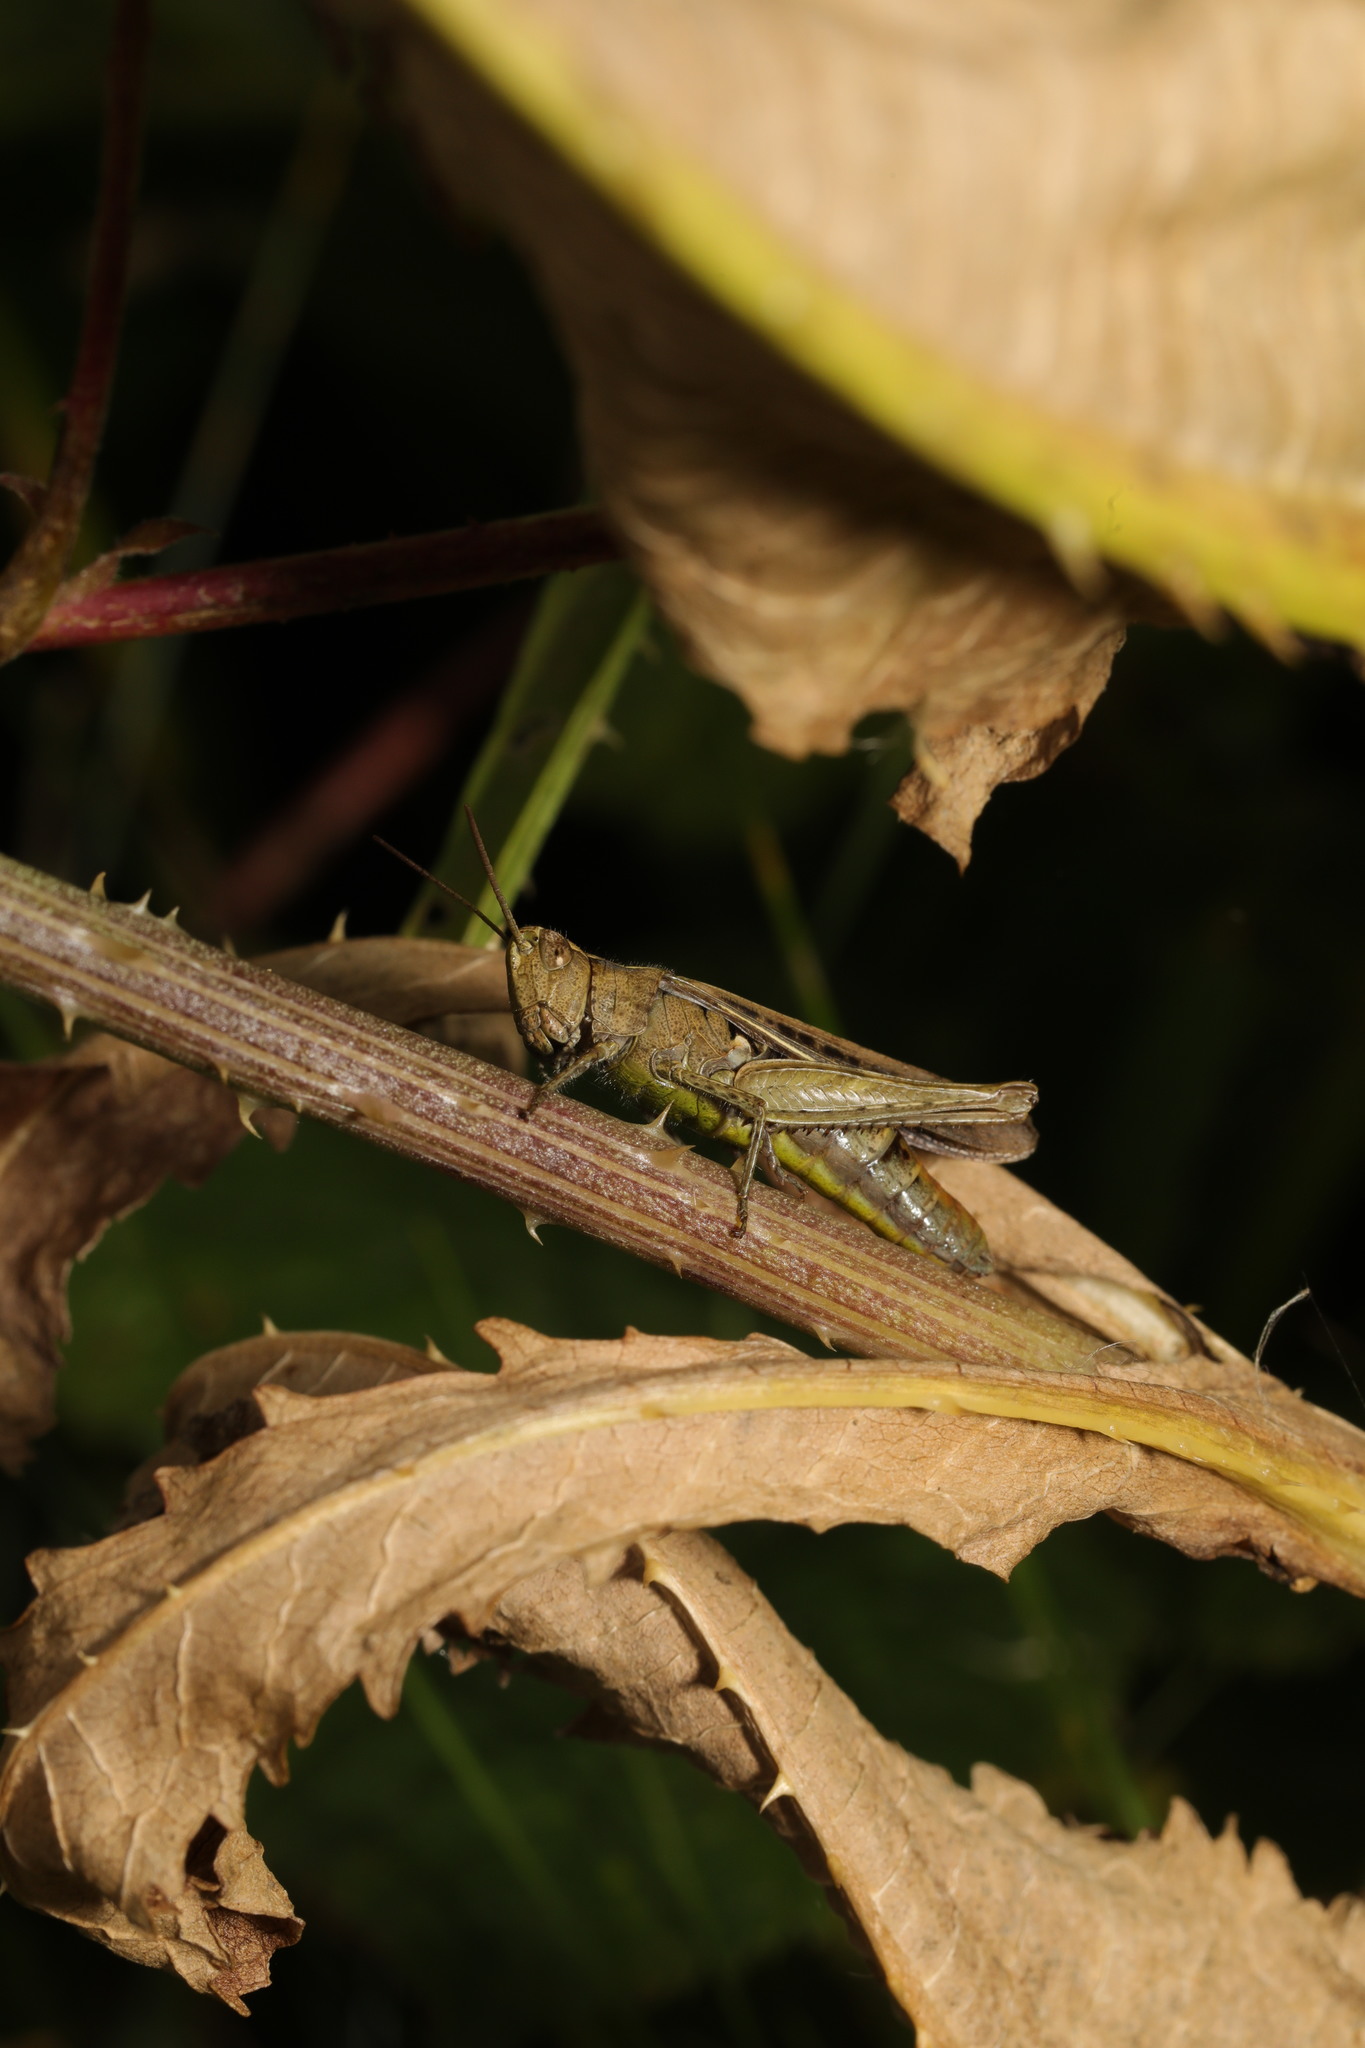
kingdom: Animalia
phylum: Arthropoda
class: Insecta
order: Orthoptera
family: Acrididae
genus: Chorthippus
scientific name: Chorthippus brunneus
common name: Field grasshopper
